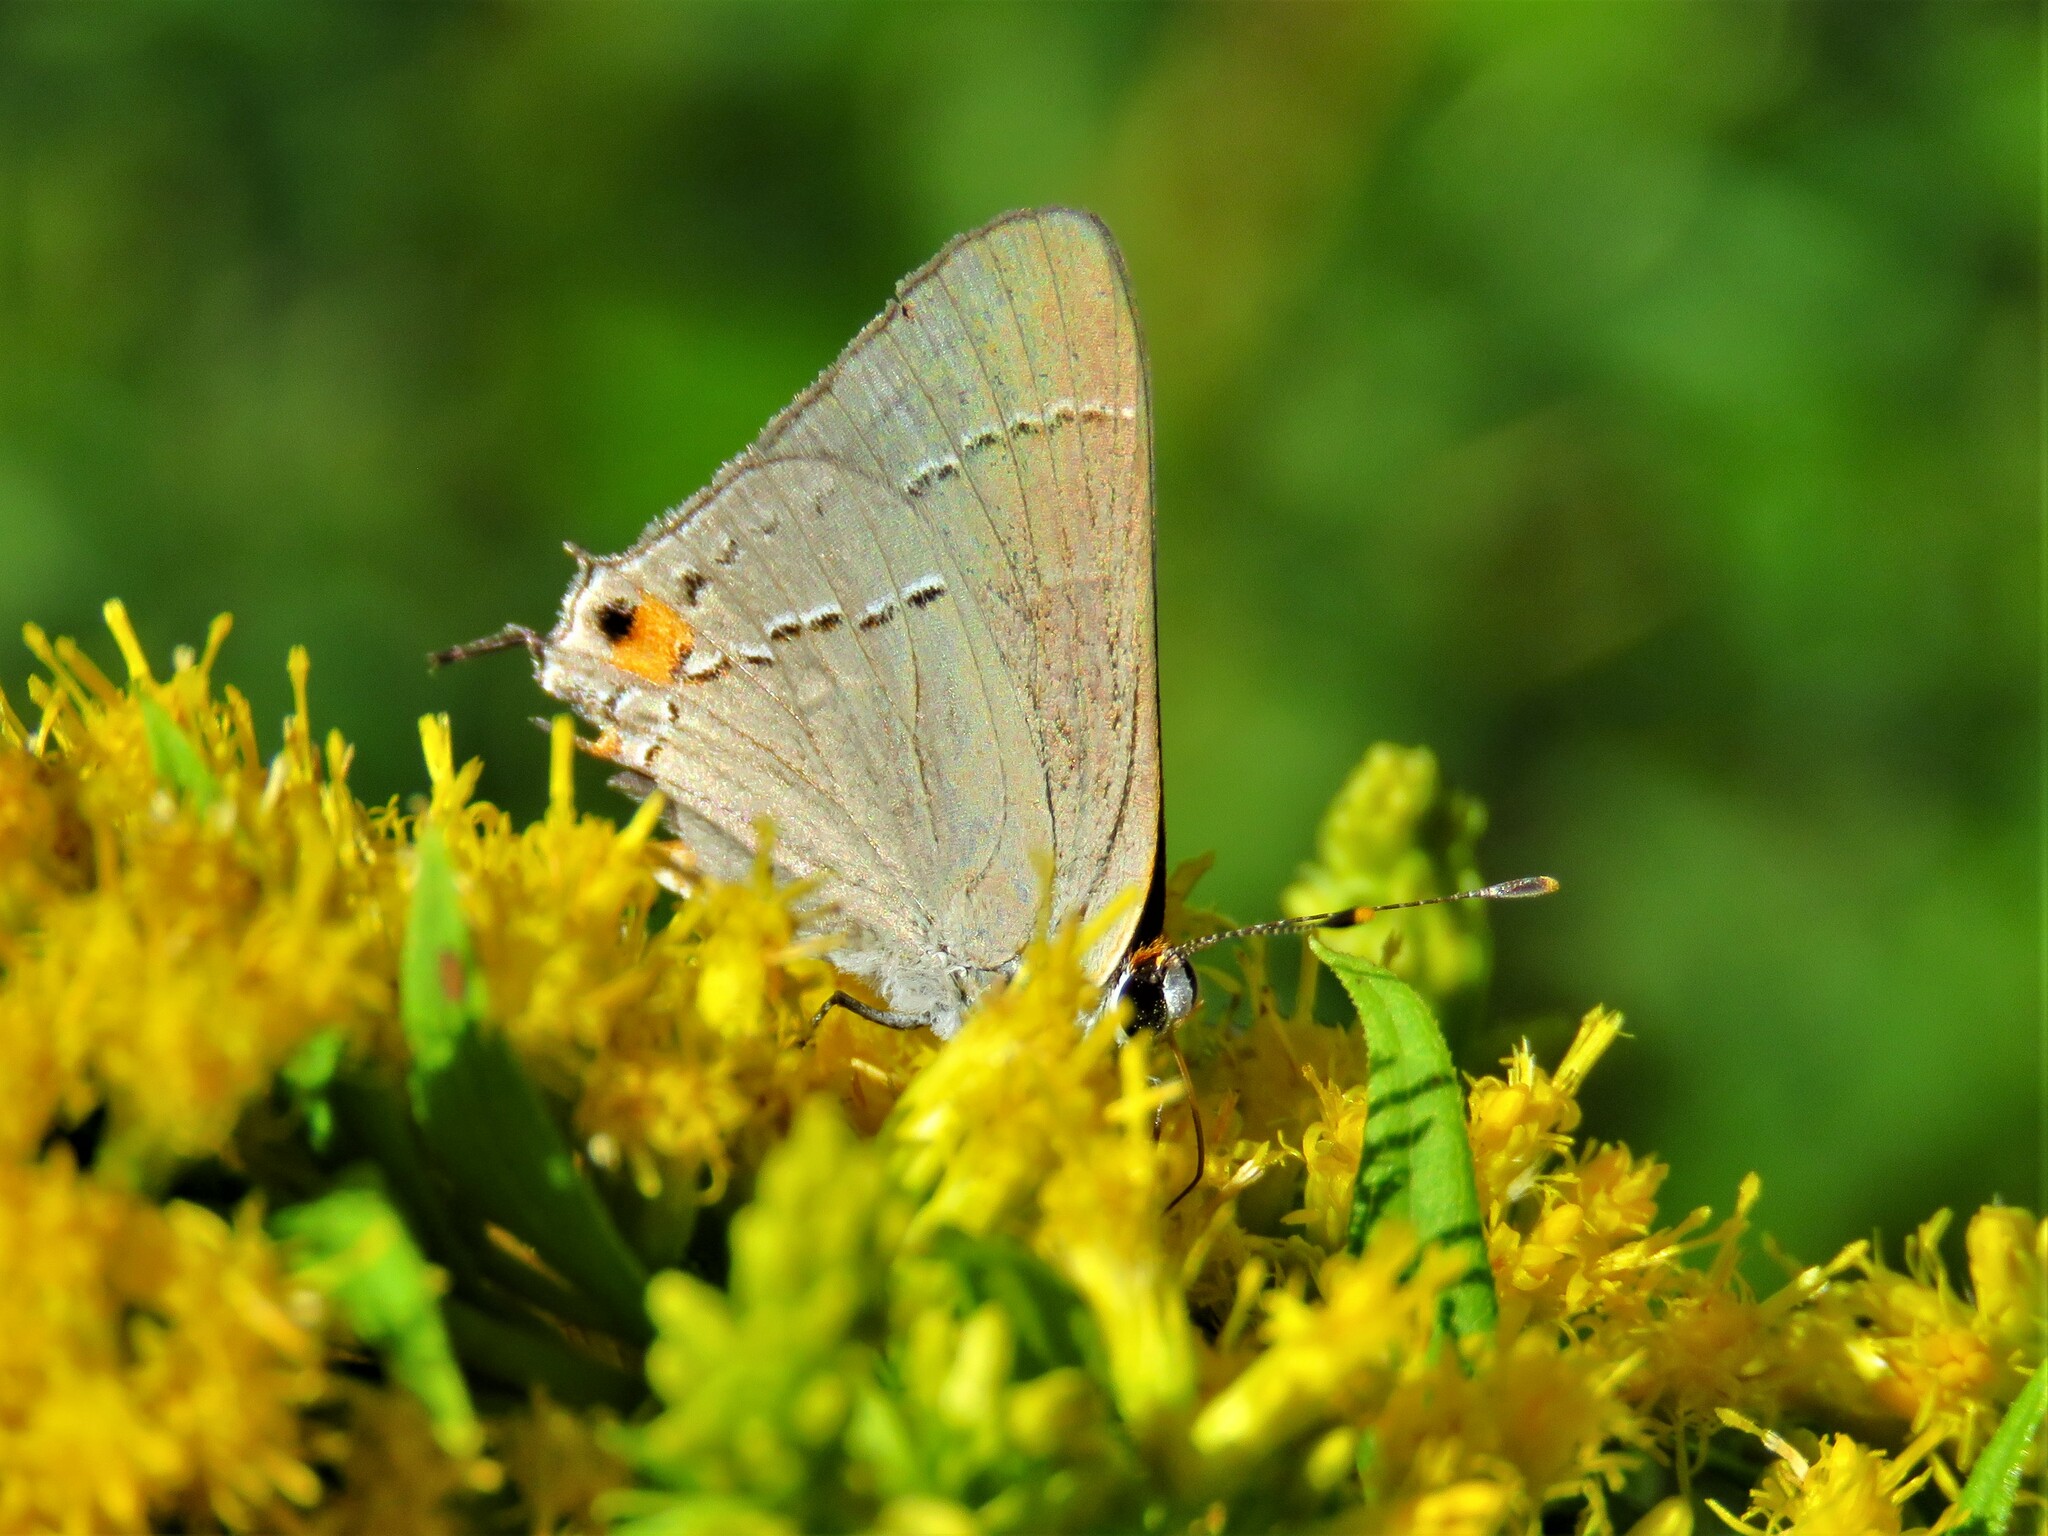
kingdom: Animalia
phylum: Arthropoda
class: Insecta
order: Lepidoptera
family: Lycaenidae
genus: Strymon
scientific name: Strymon melinus
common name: Gray hairstreak
